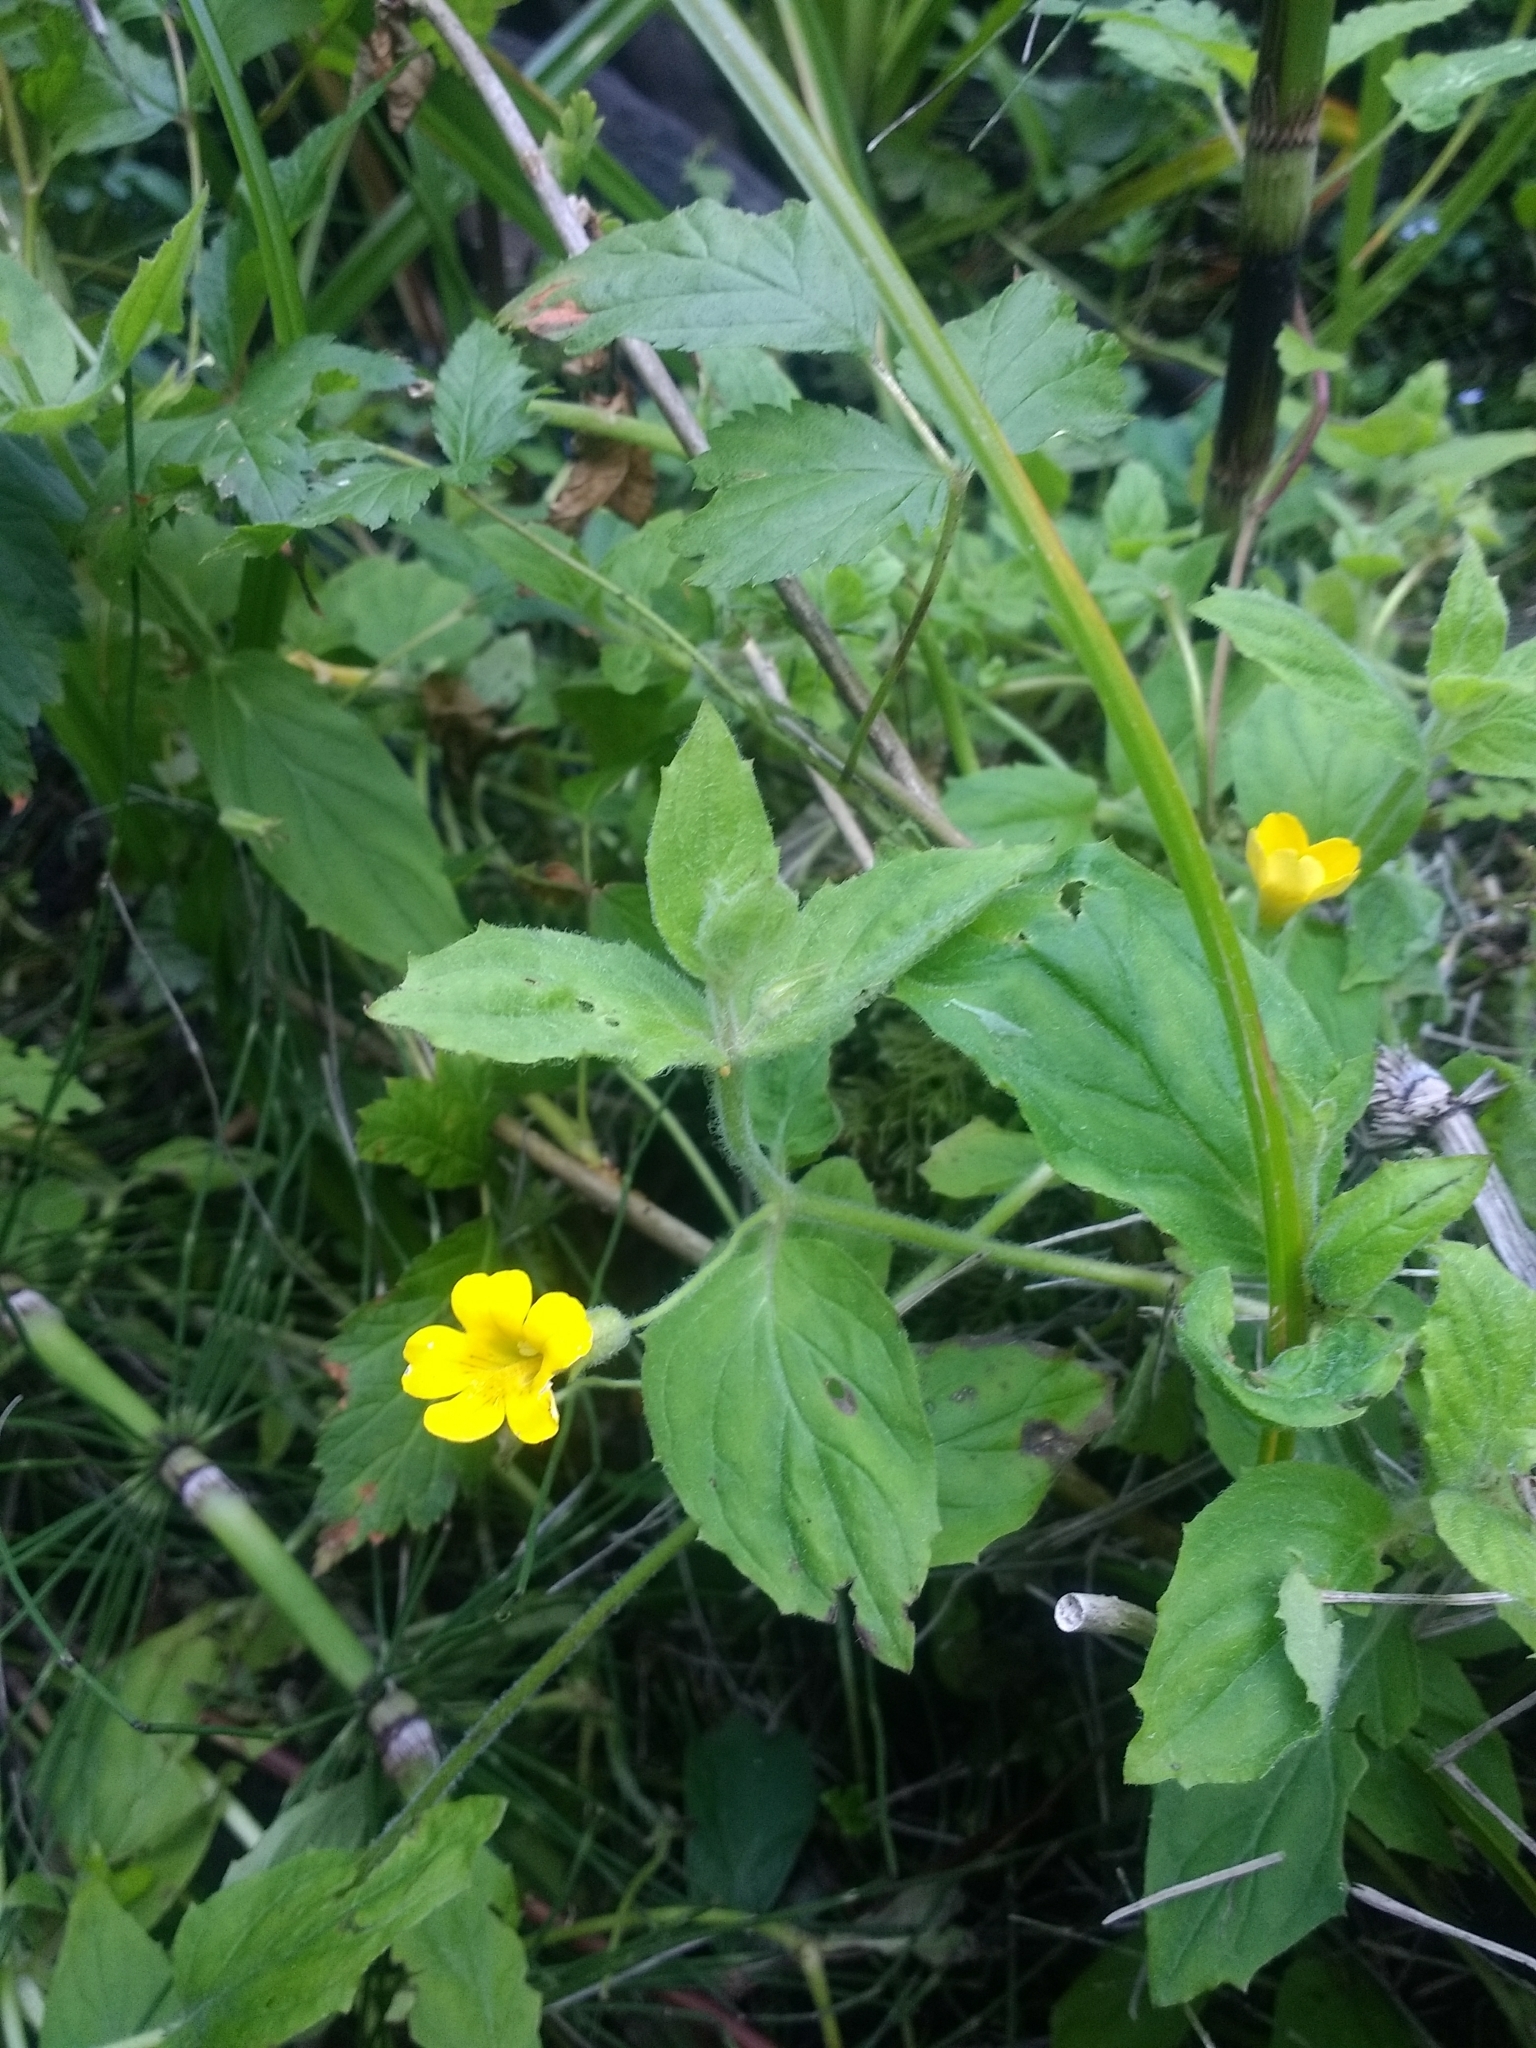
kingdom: Plantae
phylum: Tracheophyta
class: Magnoliopsida
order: Lamiales
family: Phrymaceae
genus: Erythranthe
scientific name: Erythranthe ptilota
